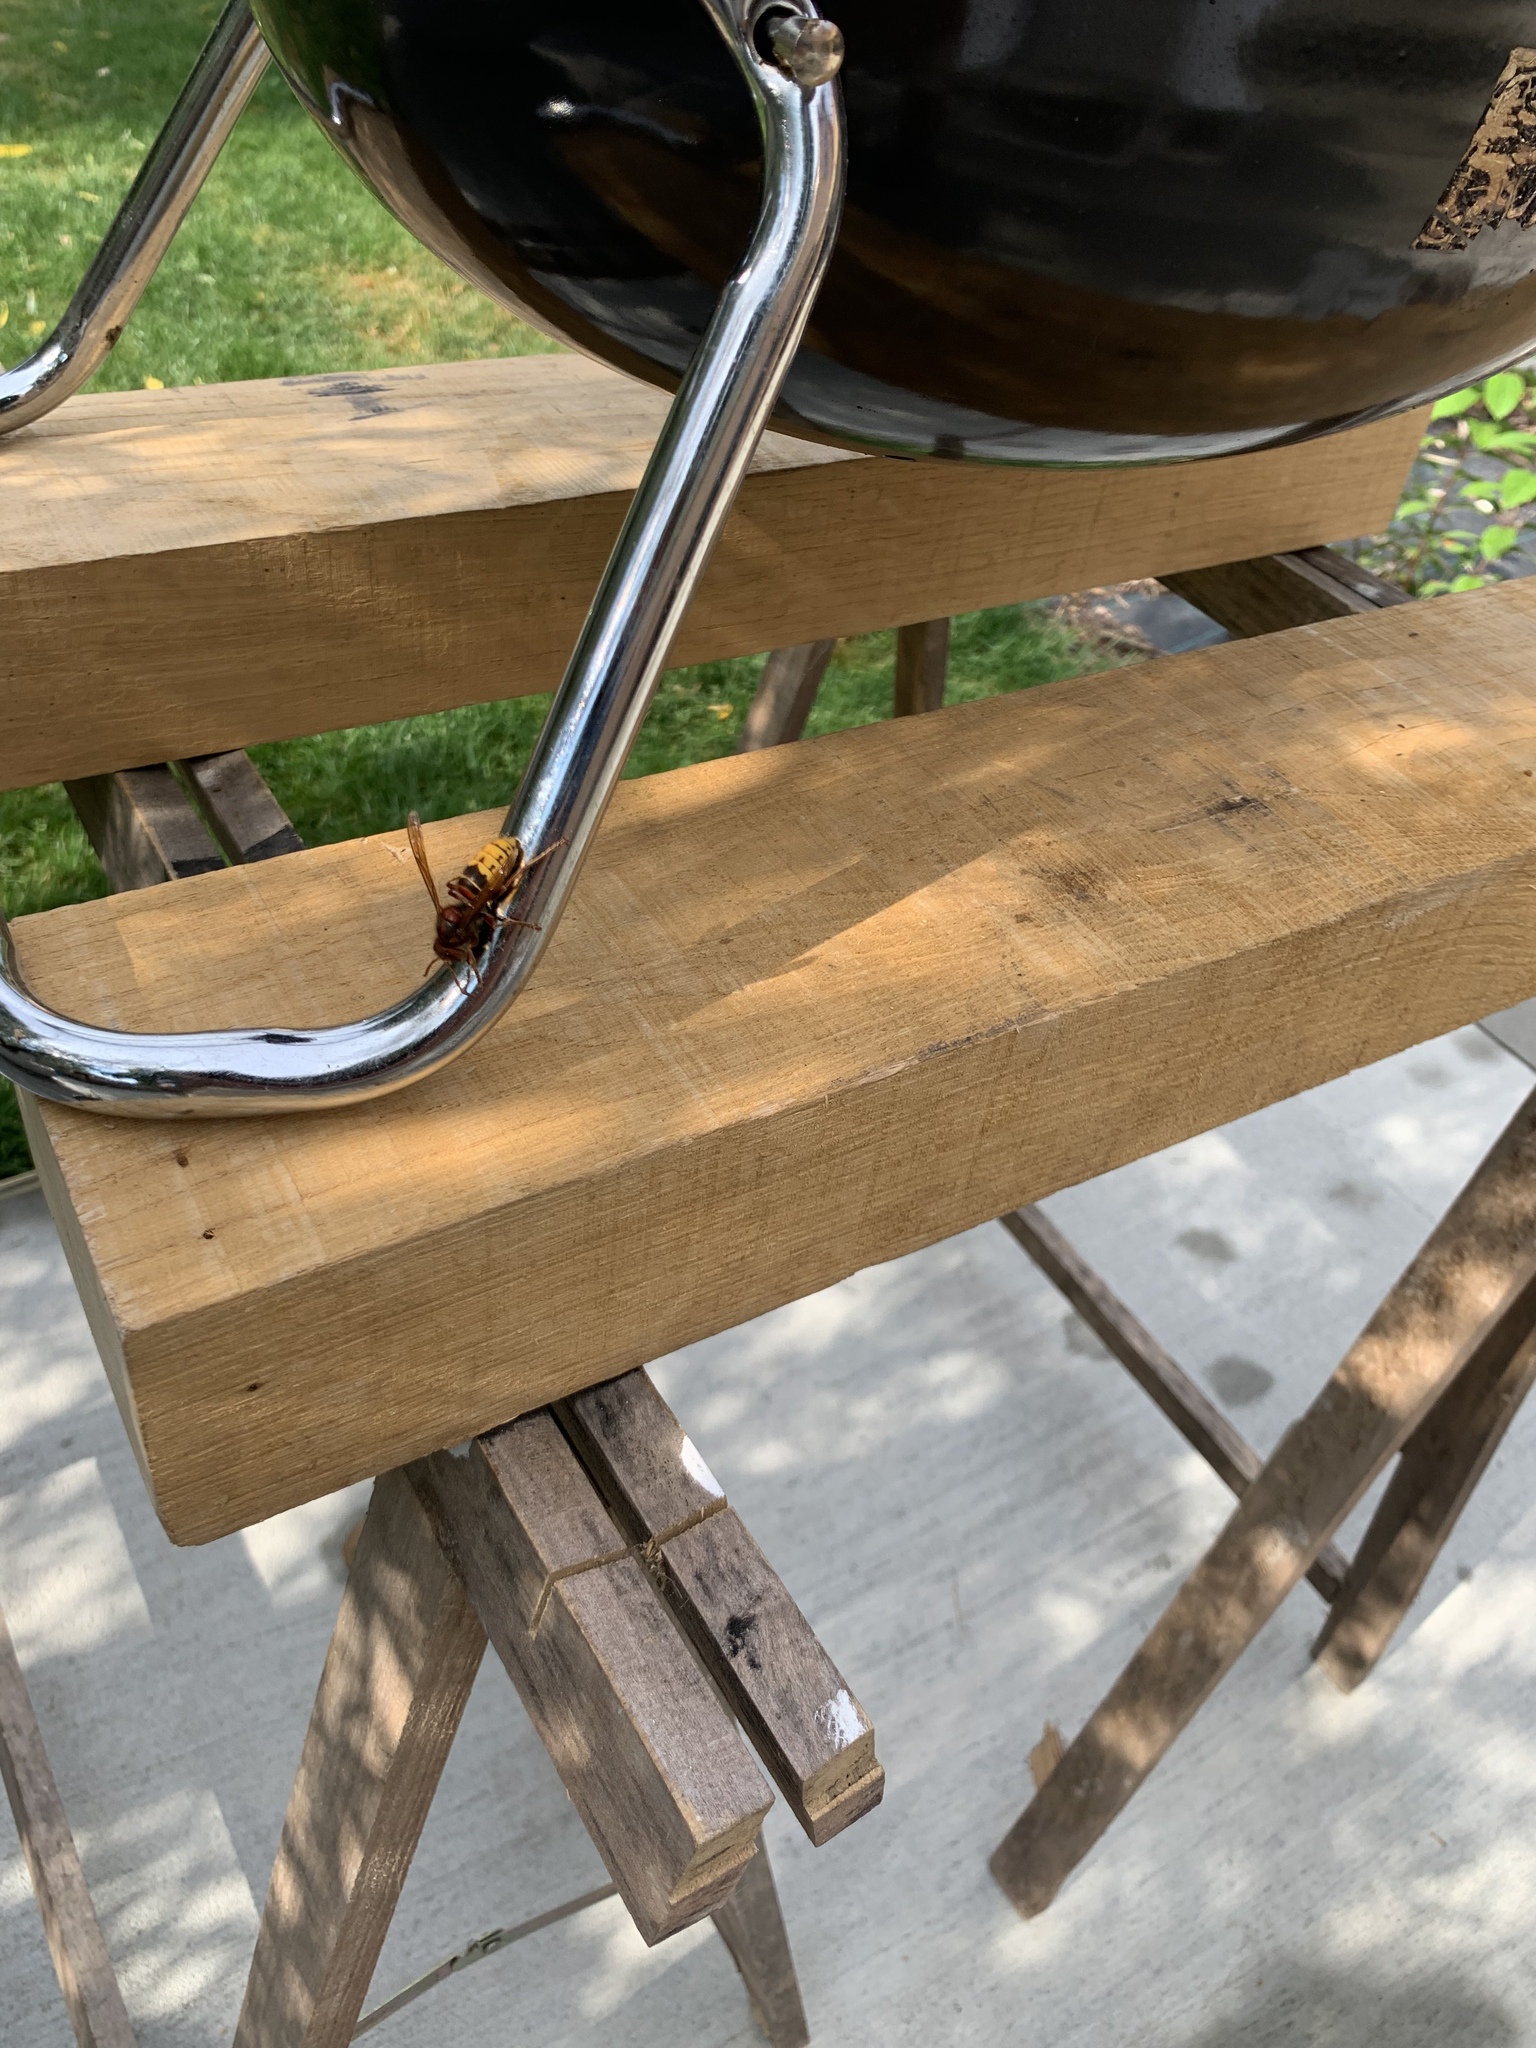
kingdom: Animalia
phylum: Arthropoda
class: Insecta
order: Hymenoptera
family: Vespidae
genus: Vespa
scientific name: Vespa crabro
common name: Hornet
